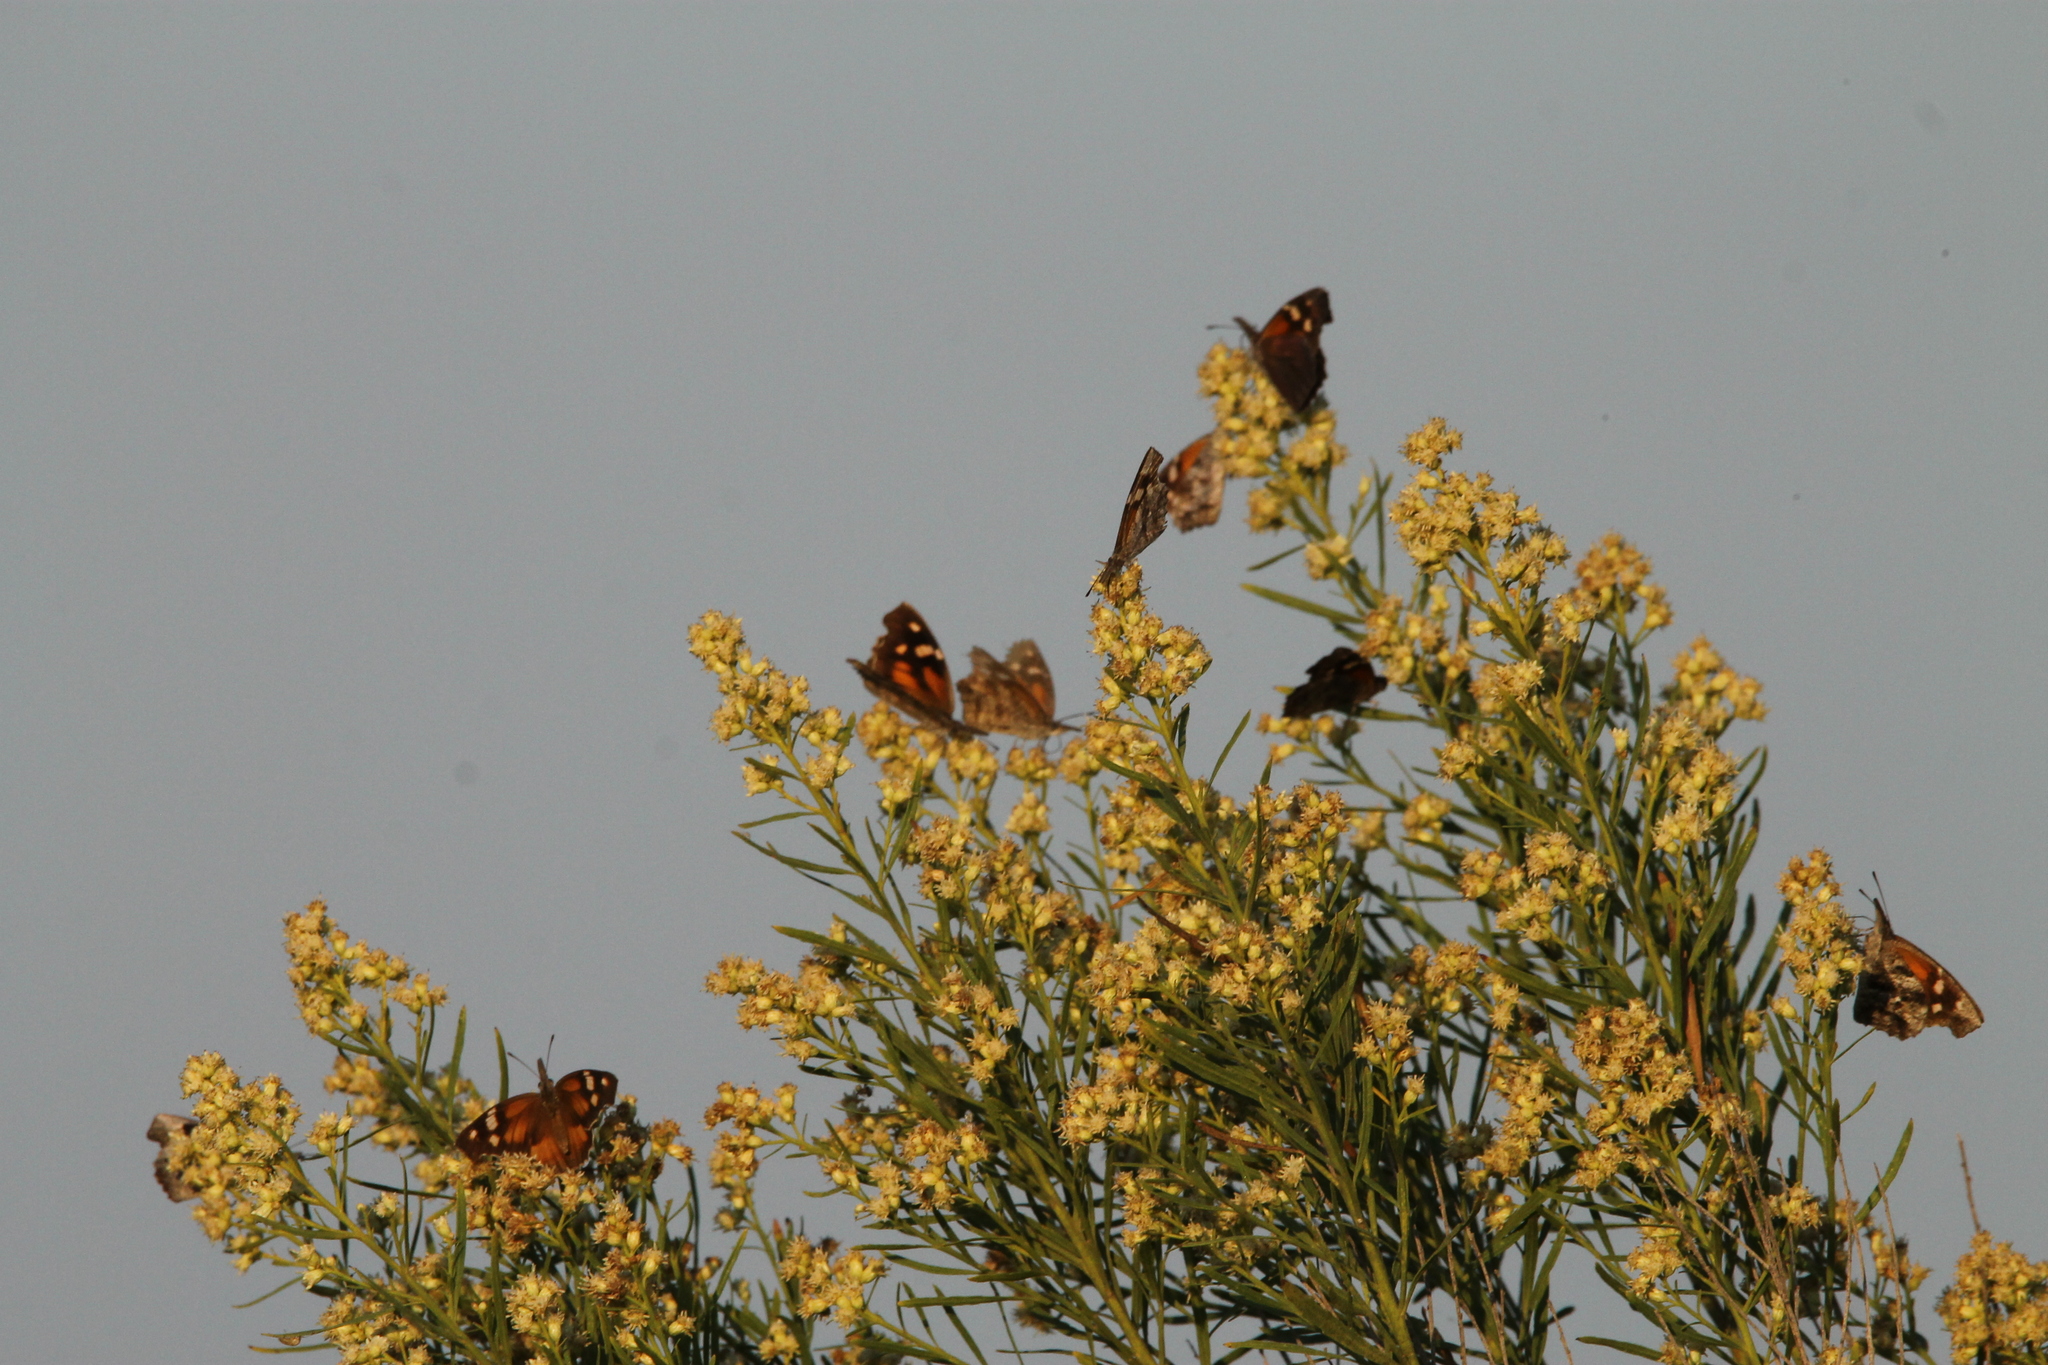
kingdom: Animalia
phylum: Arthropoda
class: Insecta
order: Lepidoptera
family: Nymphalidae
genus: Libytheana
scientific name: Libytheana carinenta
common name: American snout
